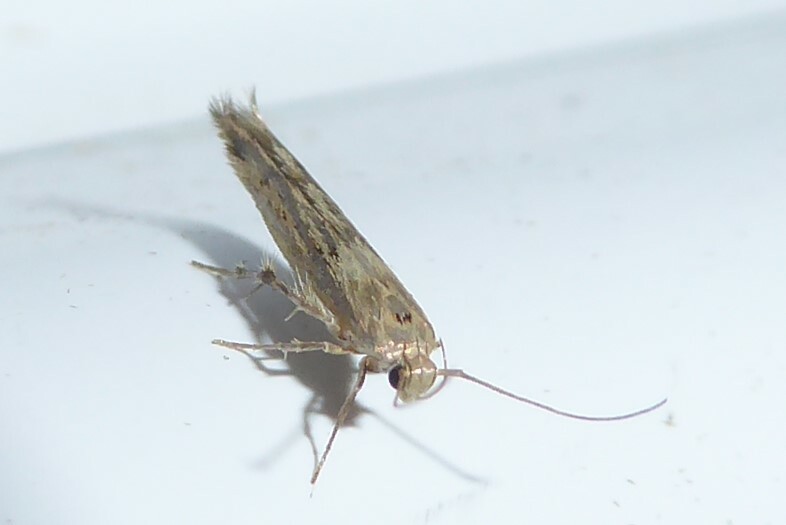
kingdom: Animalia
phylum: Arthropoda
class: Insecta
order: Lepidoptera
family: Stathmopodidae
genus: Stathmopoda
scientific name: Stathmopoda plumbiflua
